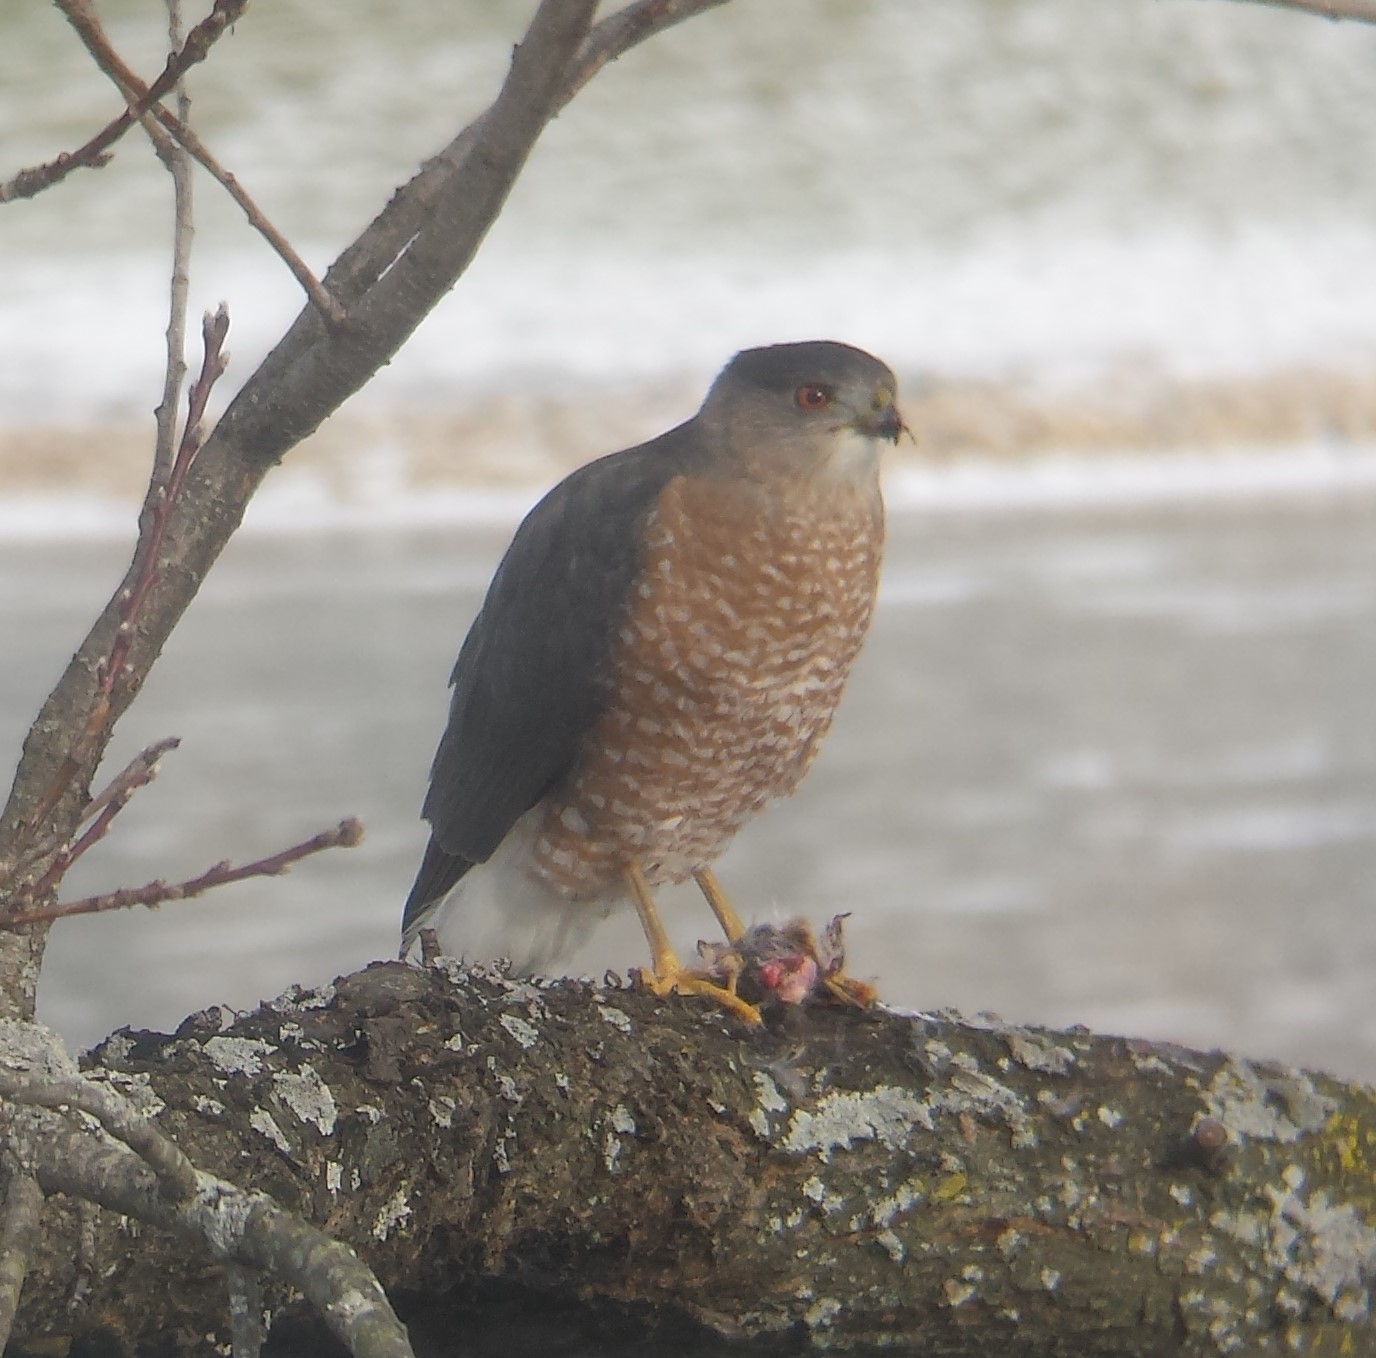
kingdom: Animalia
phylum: Chordata
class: Aves
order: Accipitriformes
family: Accipitridae
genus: Accipiter
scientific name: Accipiter cooperii
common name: Cooper's hawk
